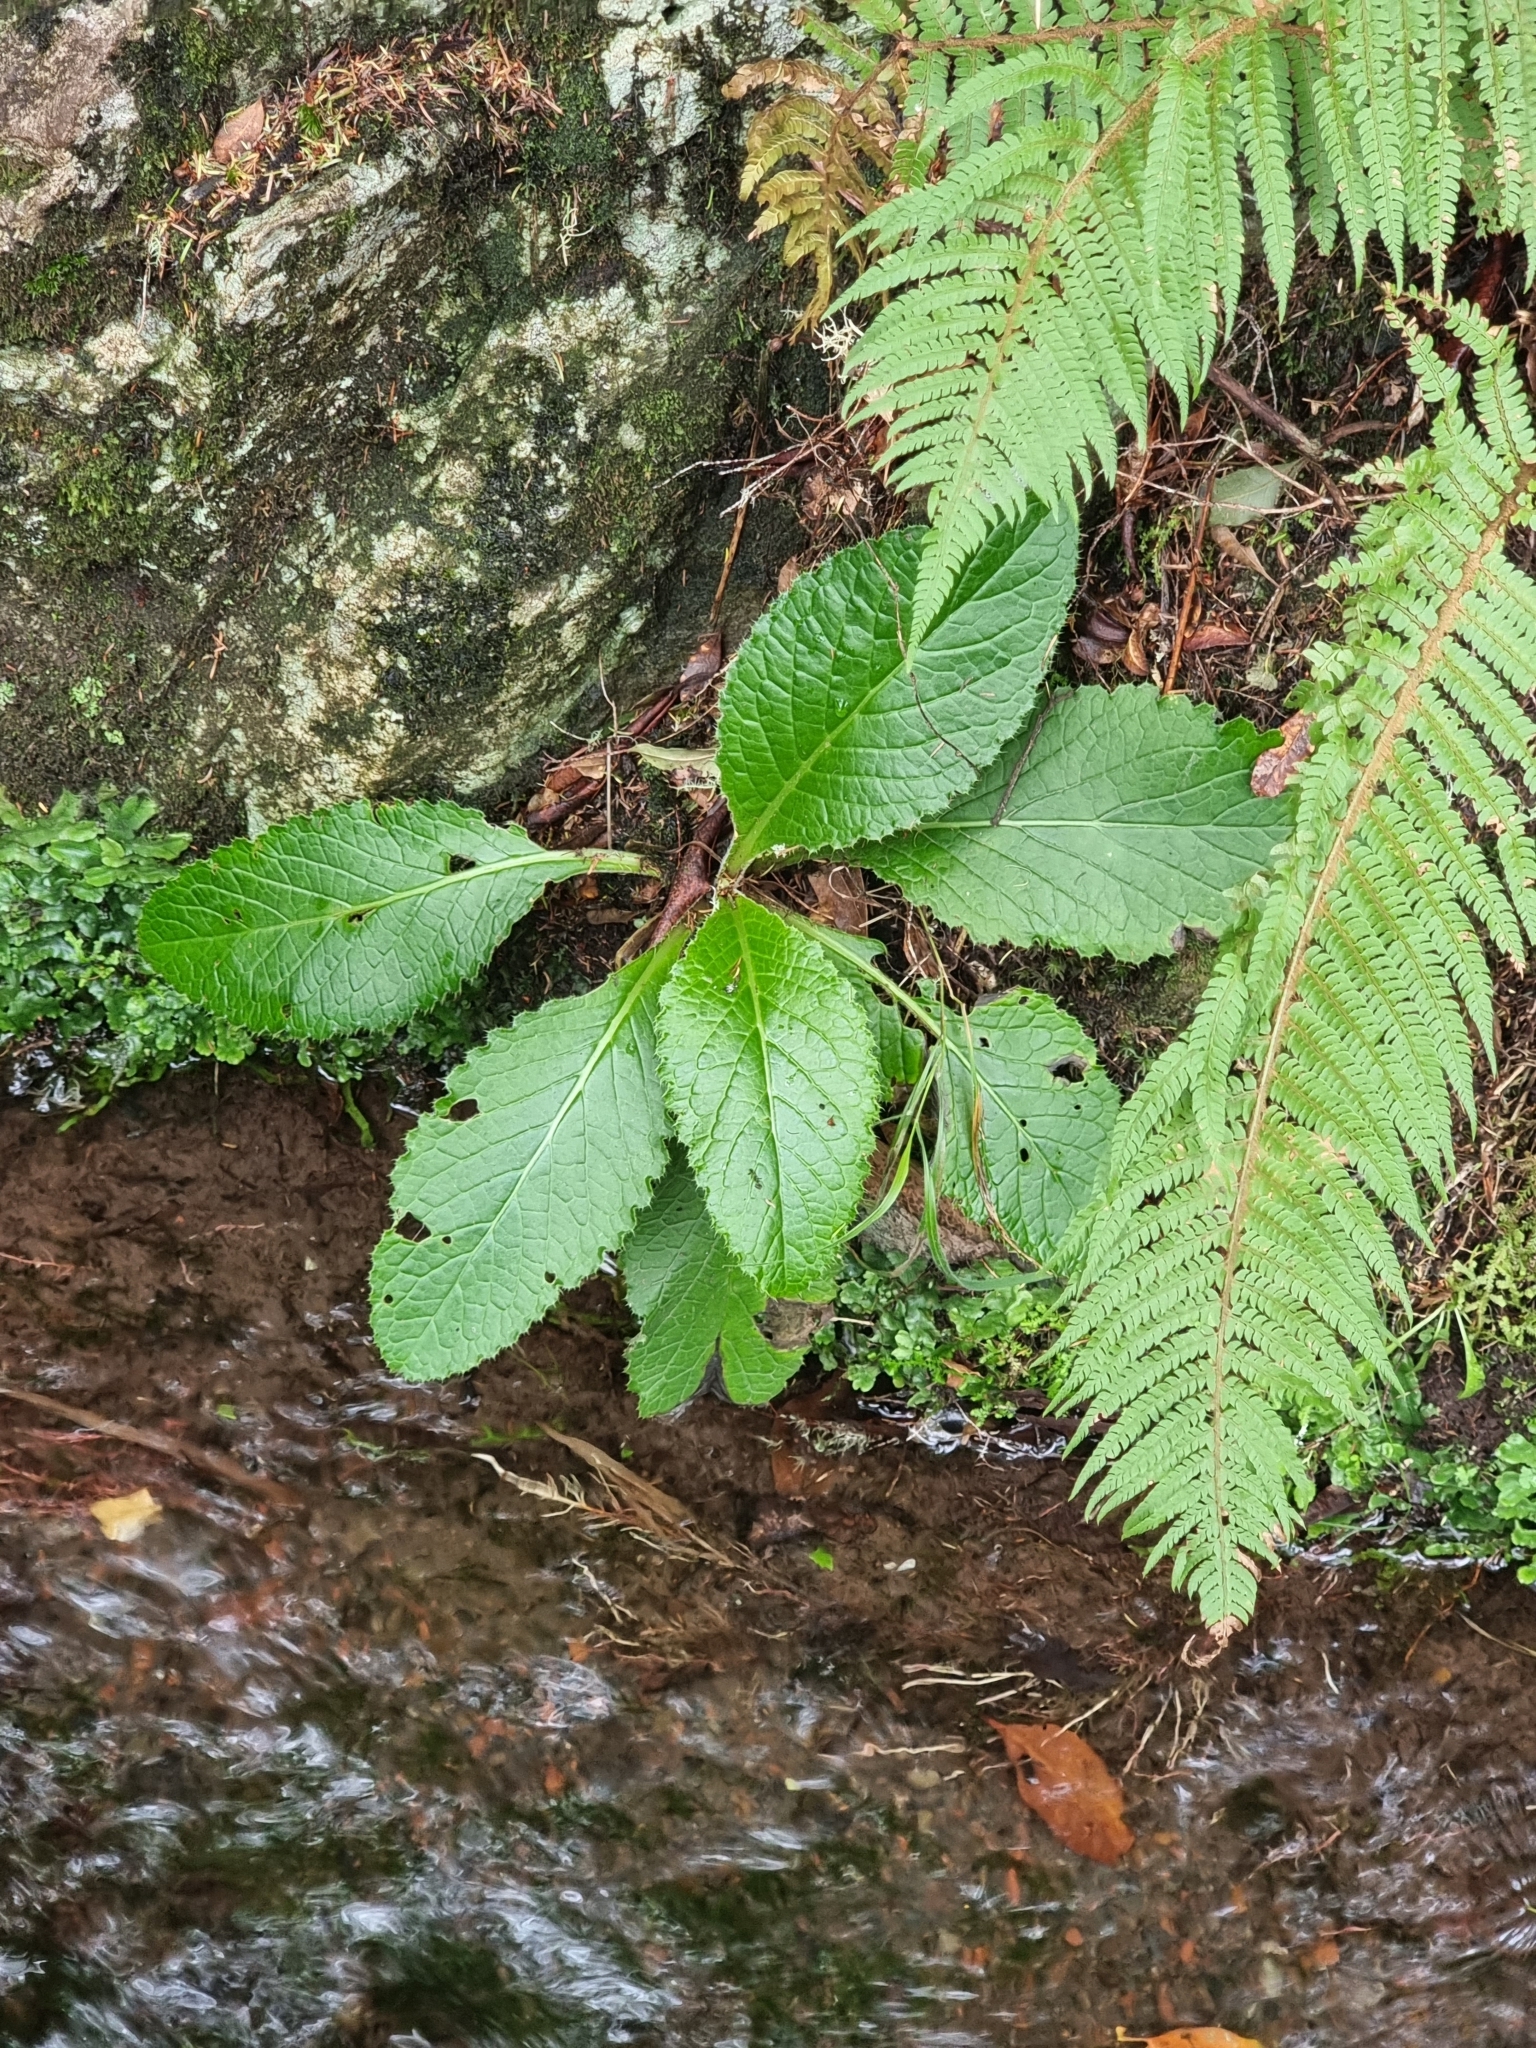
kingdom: Plantae
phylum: Tracheophyta
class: Magnoliopsida
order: Asterales
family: Asteraceae
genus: Cirsium
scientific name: Cirsium latifolium
